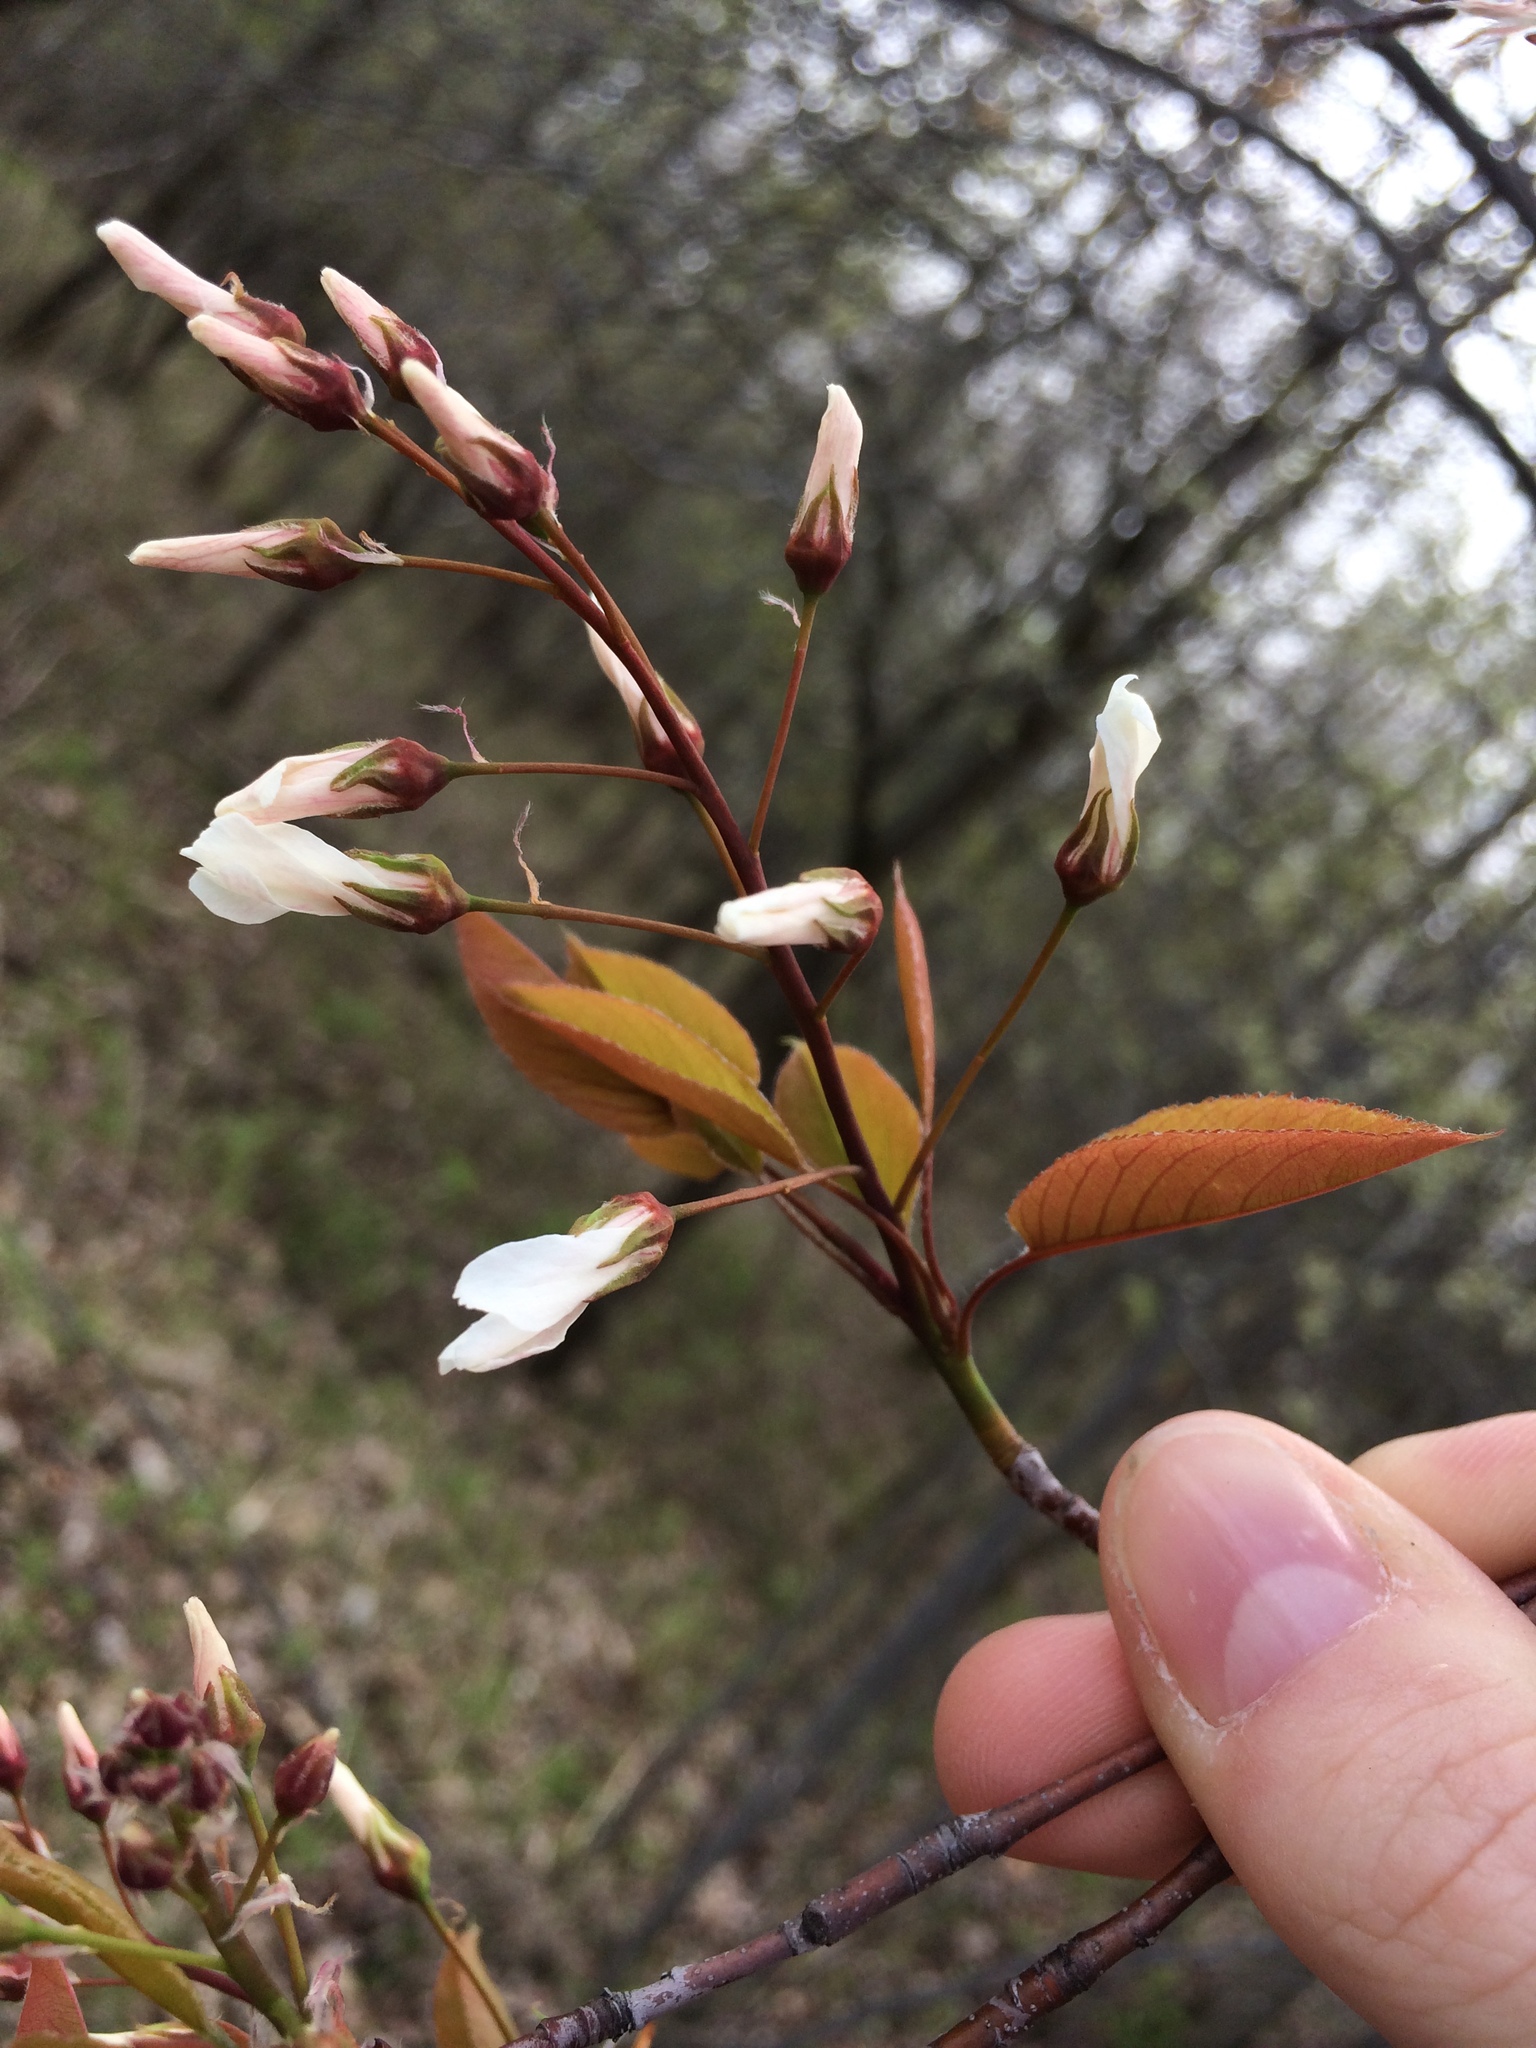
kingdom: Plantae
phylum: Tracheophyta
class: Magnoliopsida
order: Rosales
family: Rosaceae
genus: Amelanchier
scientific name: Amelanchier laevis
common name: Allegheny serviceberry
